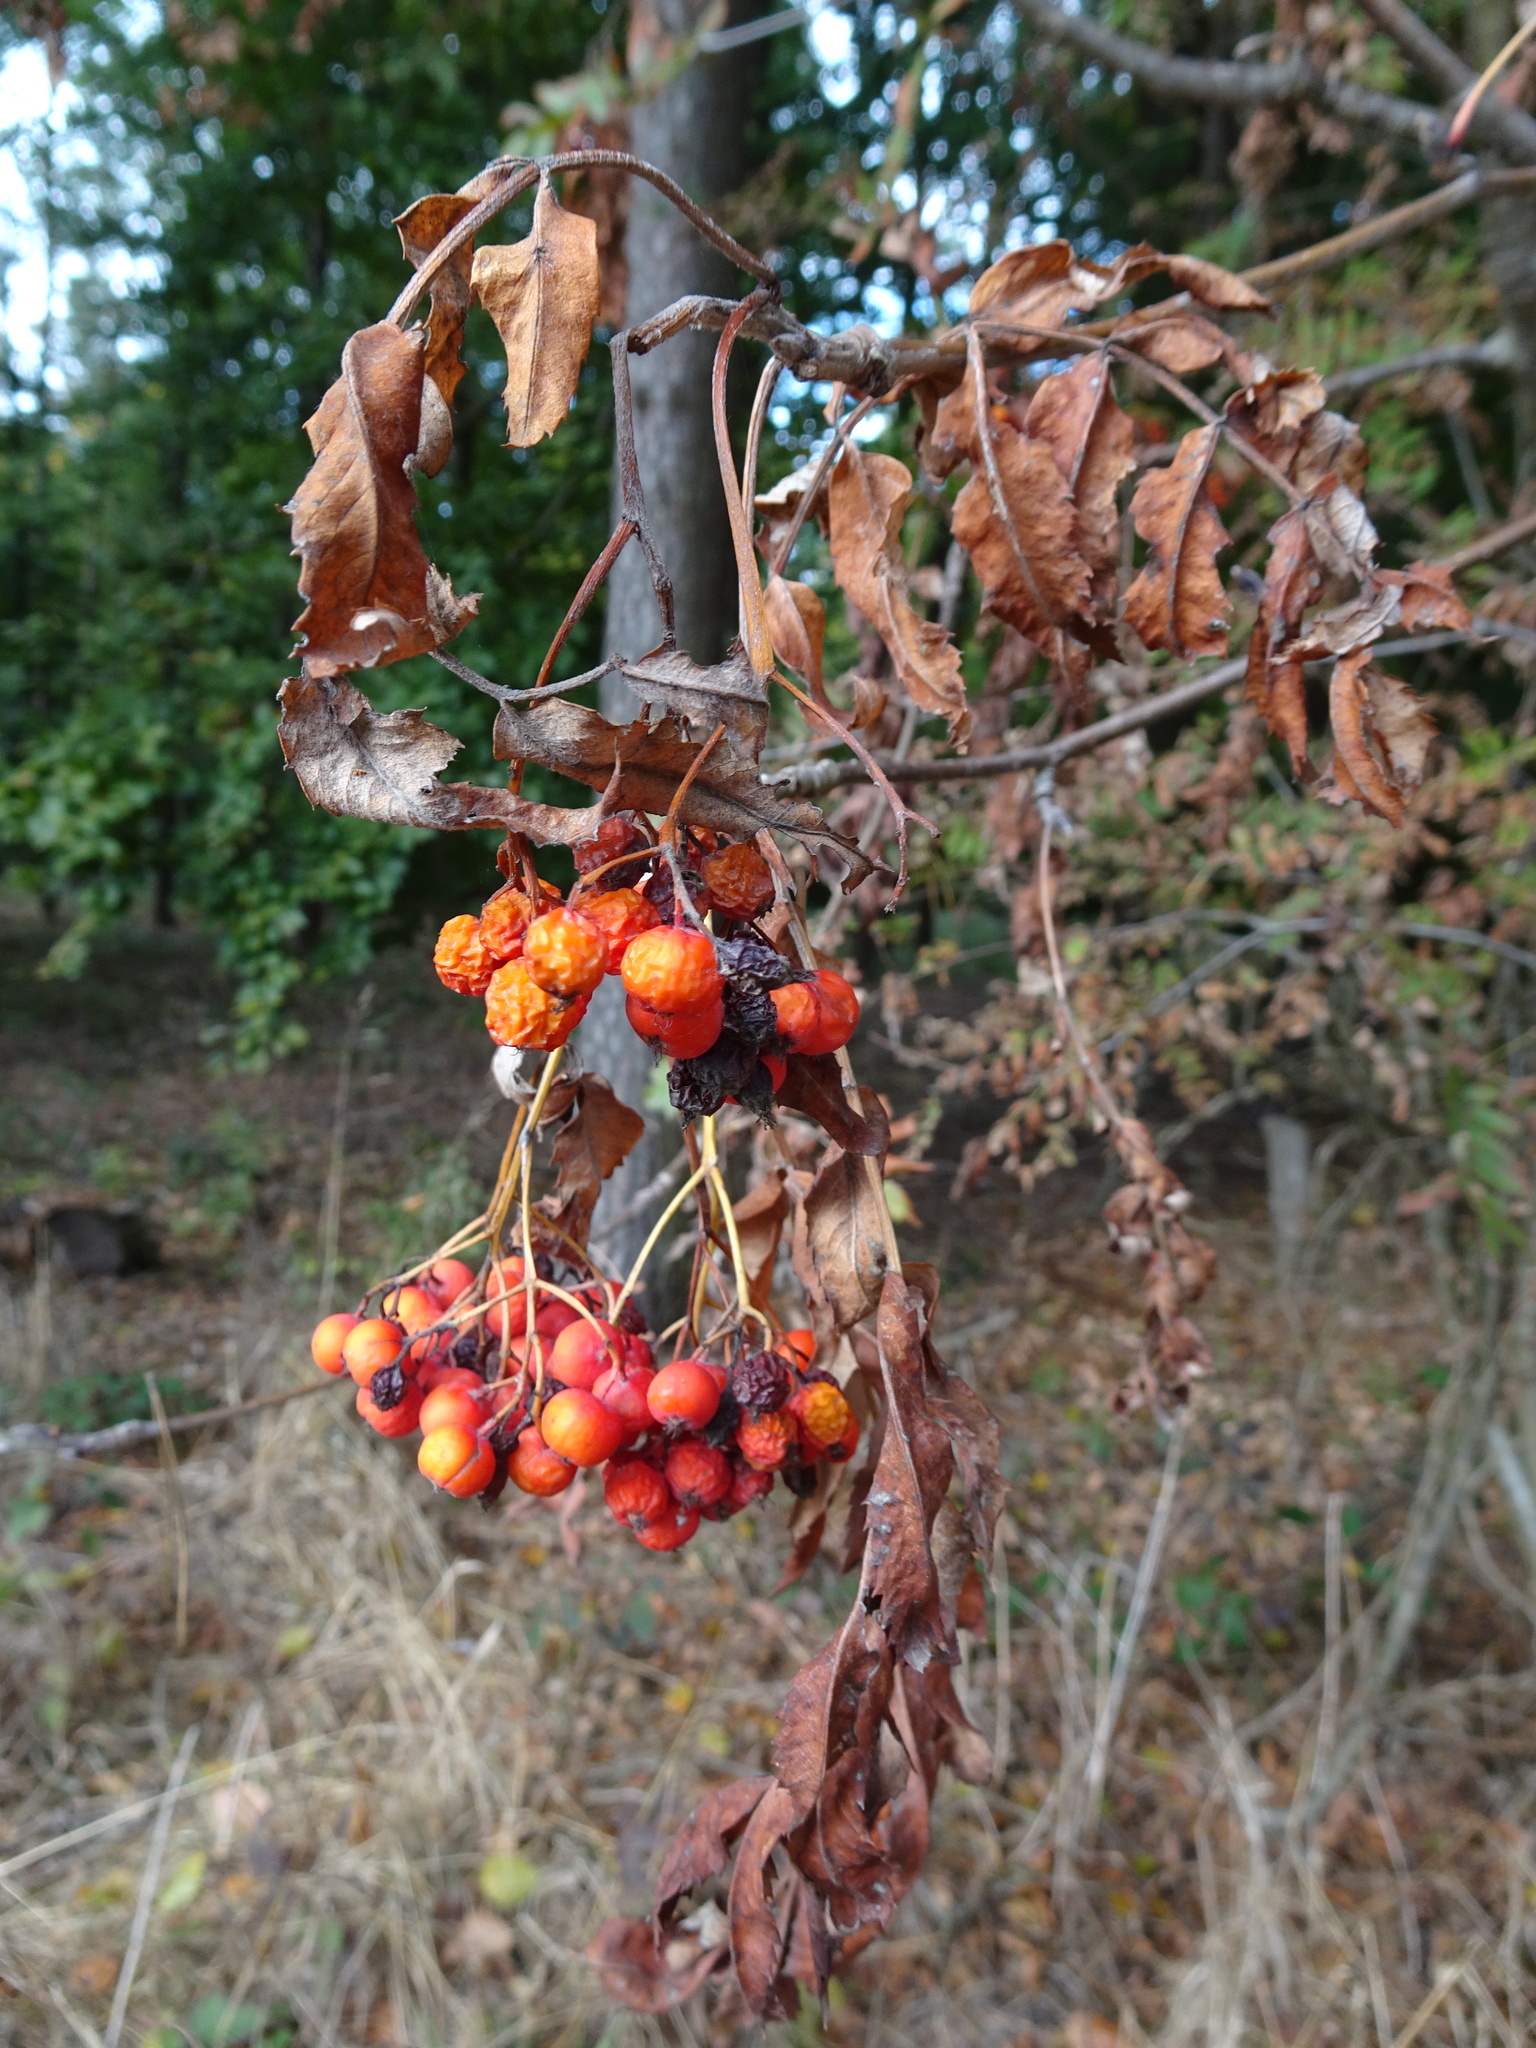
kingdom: Plantae
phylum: Tracheophyta
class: Magnoliopsida
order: Rosales
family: Rosaceae
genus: Sorbus
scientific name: Sorbus aucuparia
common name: Rowan
